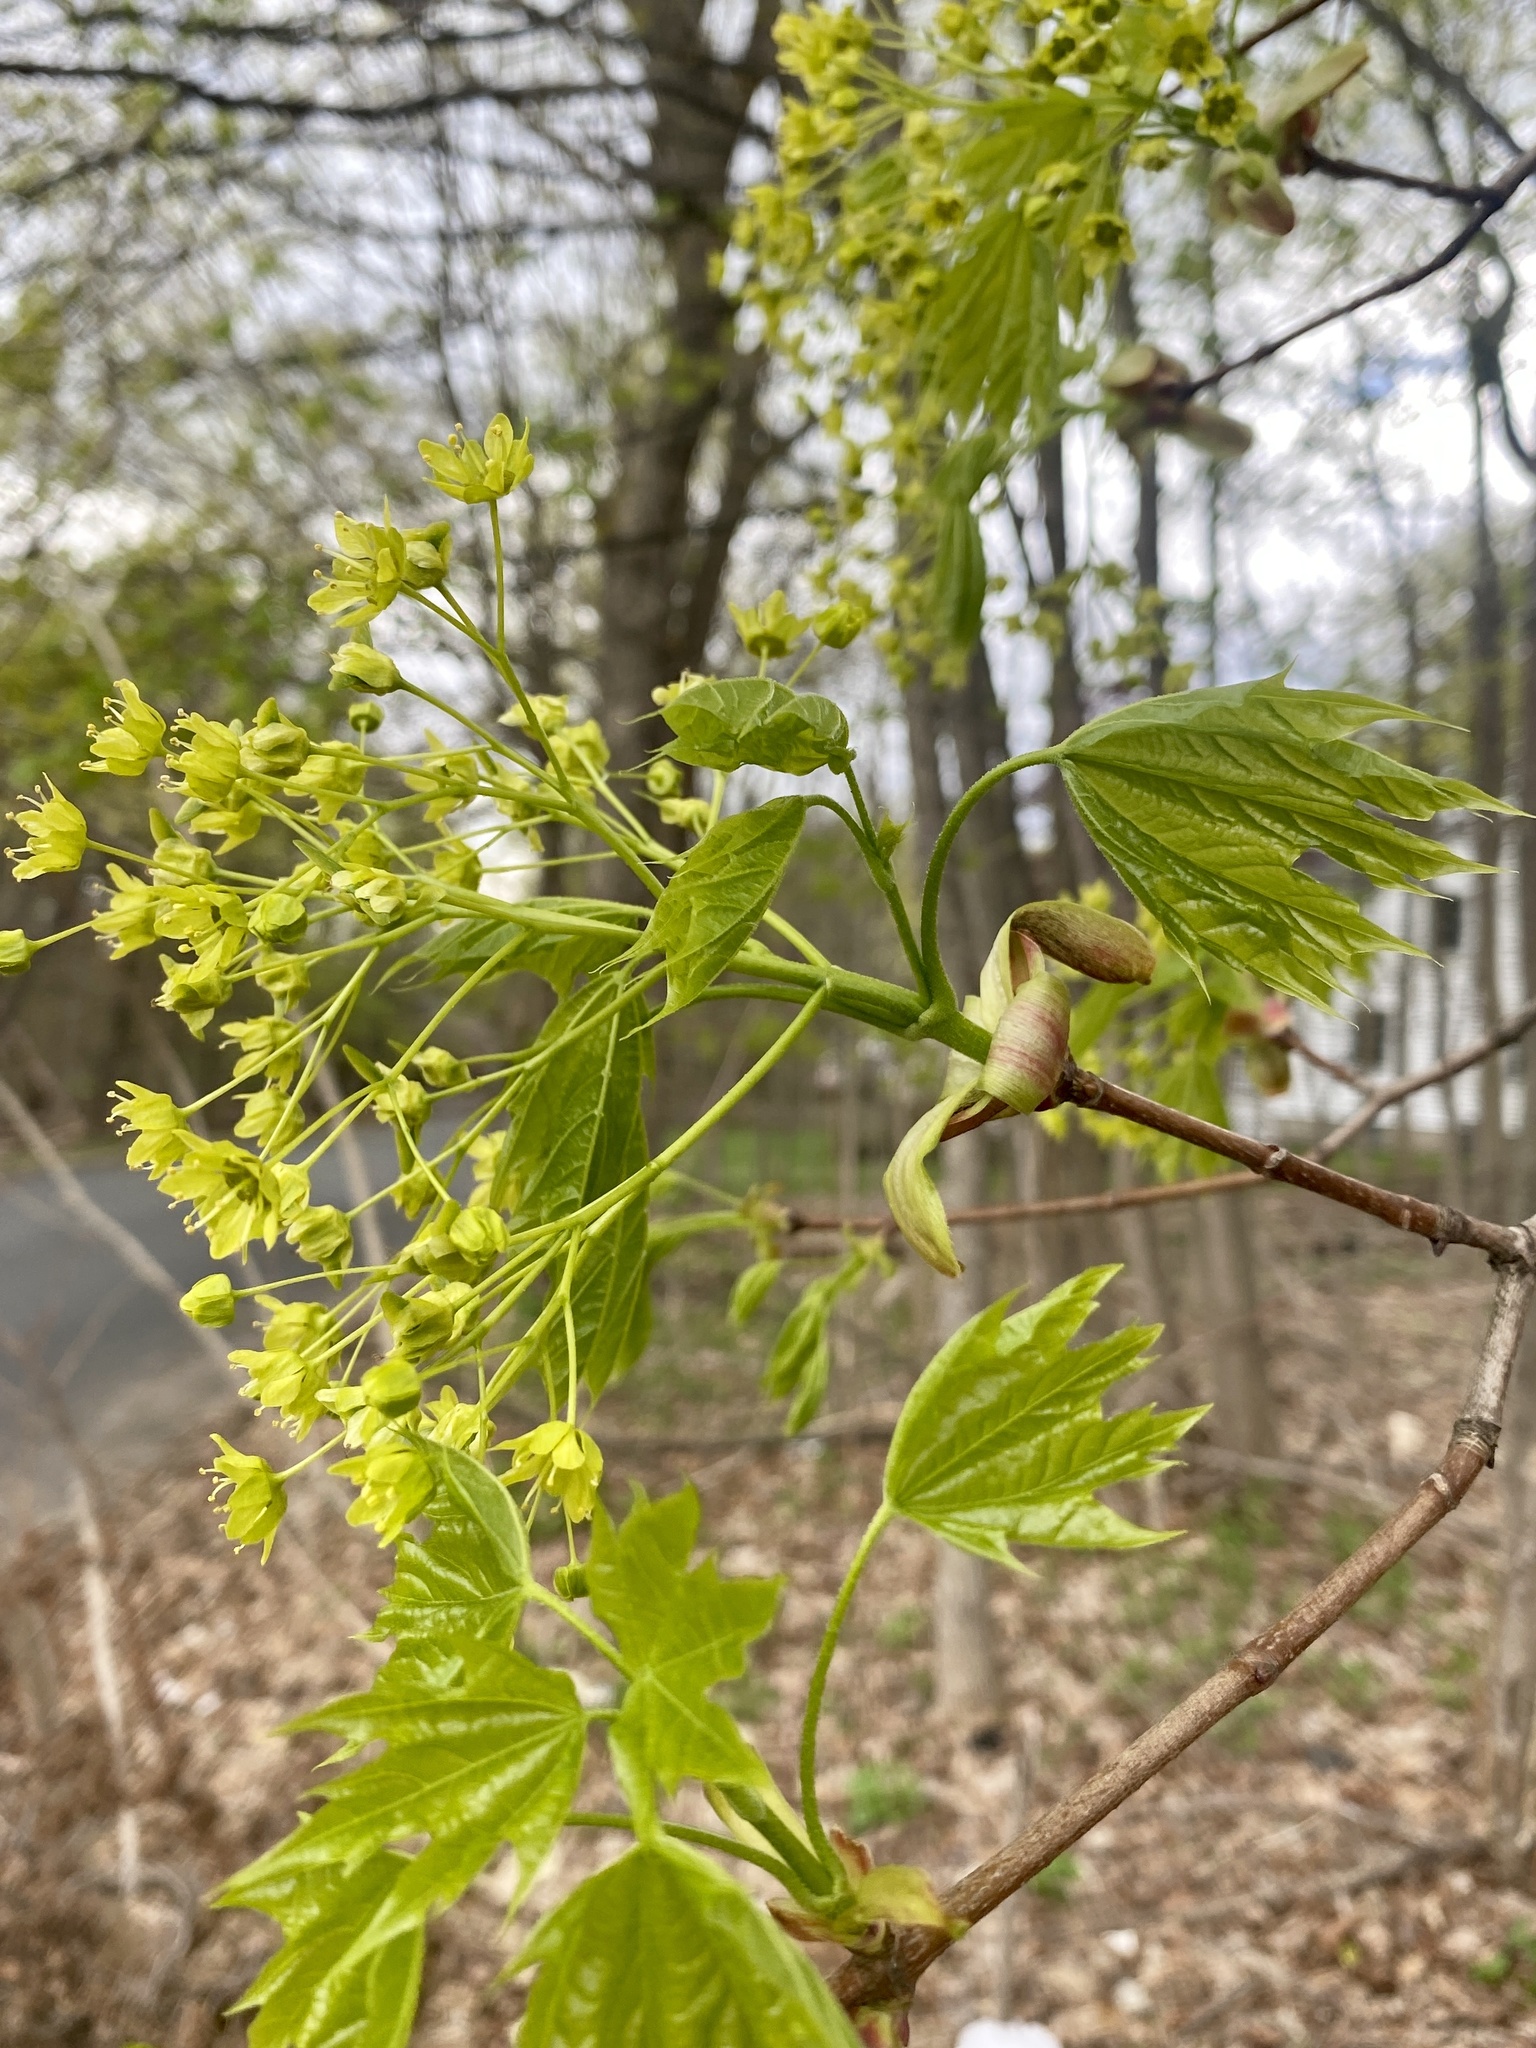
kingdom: Plantae
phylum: Tracheophyta
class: Magnoliopsida
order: Sapindales
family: Sapindaceae
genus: Acer
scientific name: Acer platanoides
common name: Norway maple
